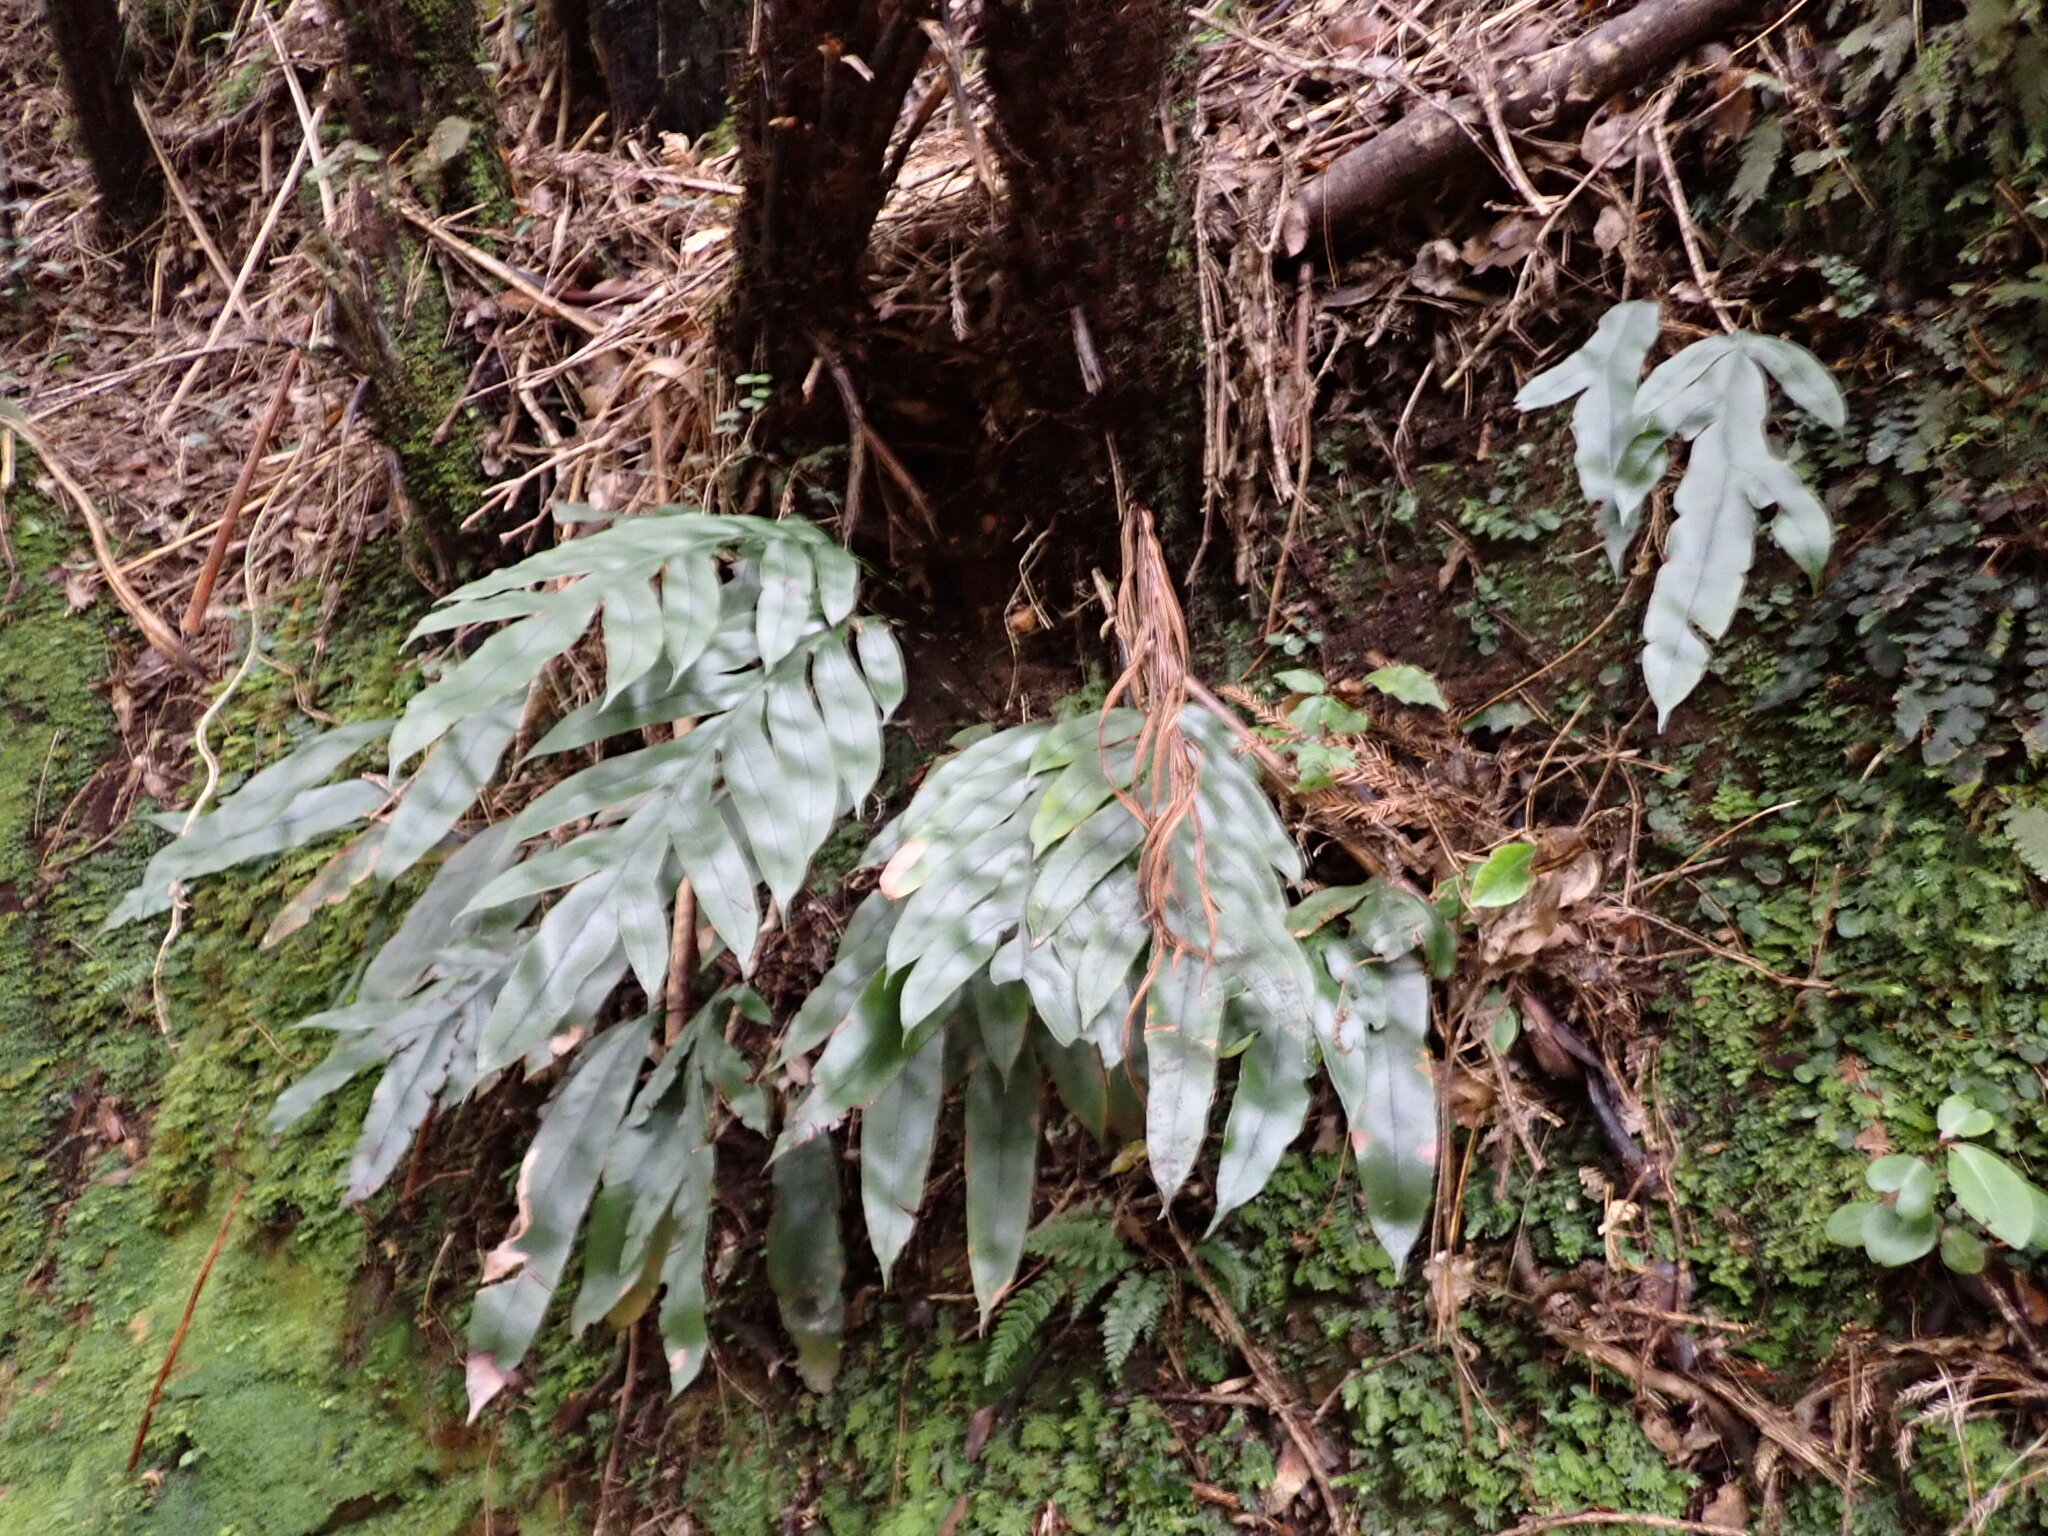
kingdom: Plantae
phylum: Tracheophyta
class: Polypodiopsida
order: Polypodiales
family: Blechnaceae
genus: Austroblechnum
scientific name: Austroblechnum colensoi
